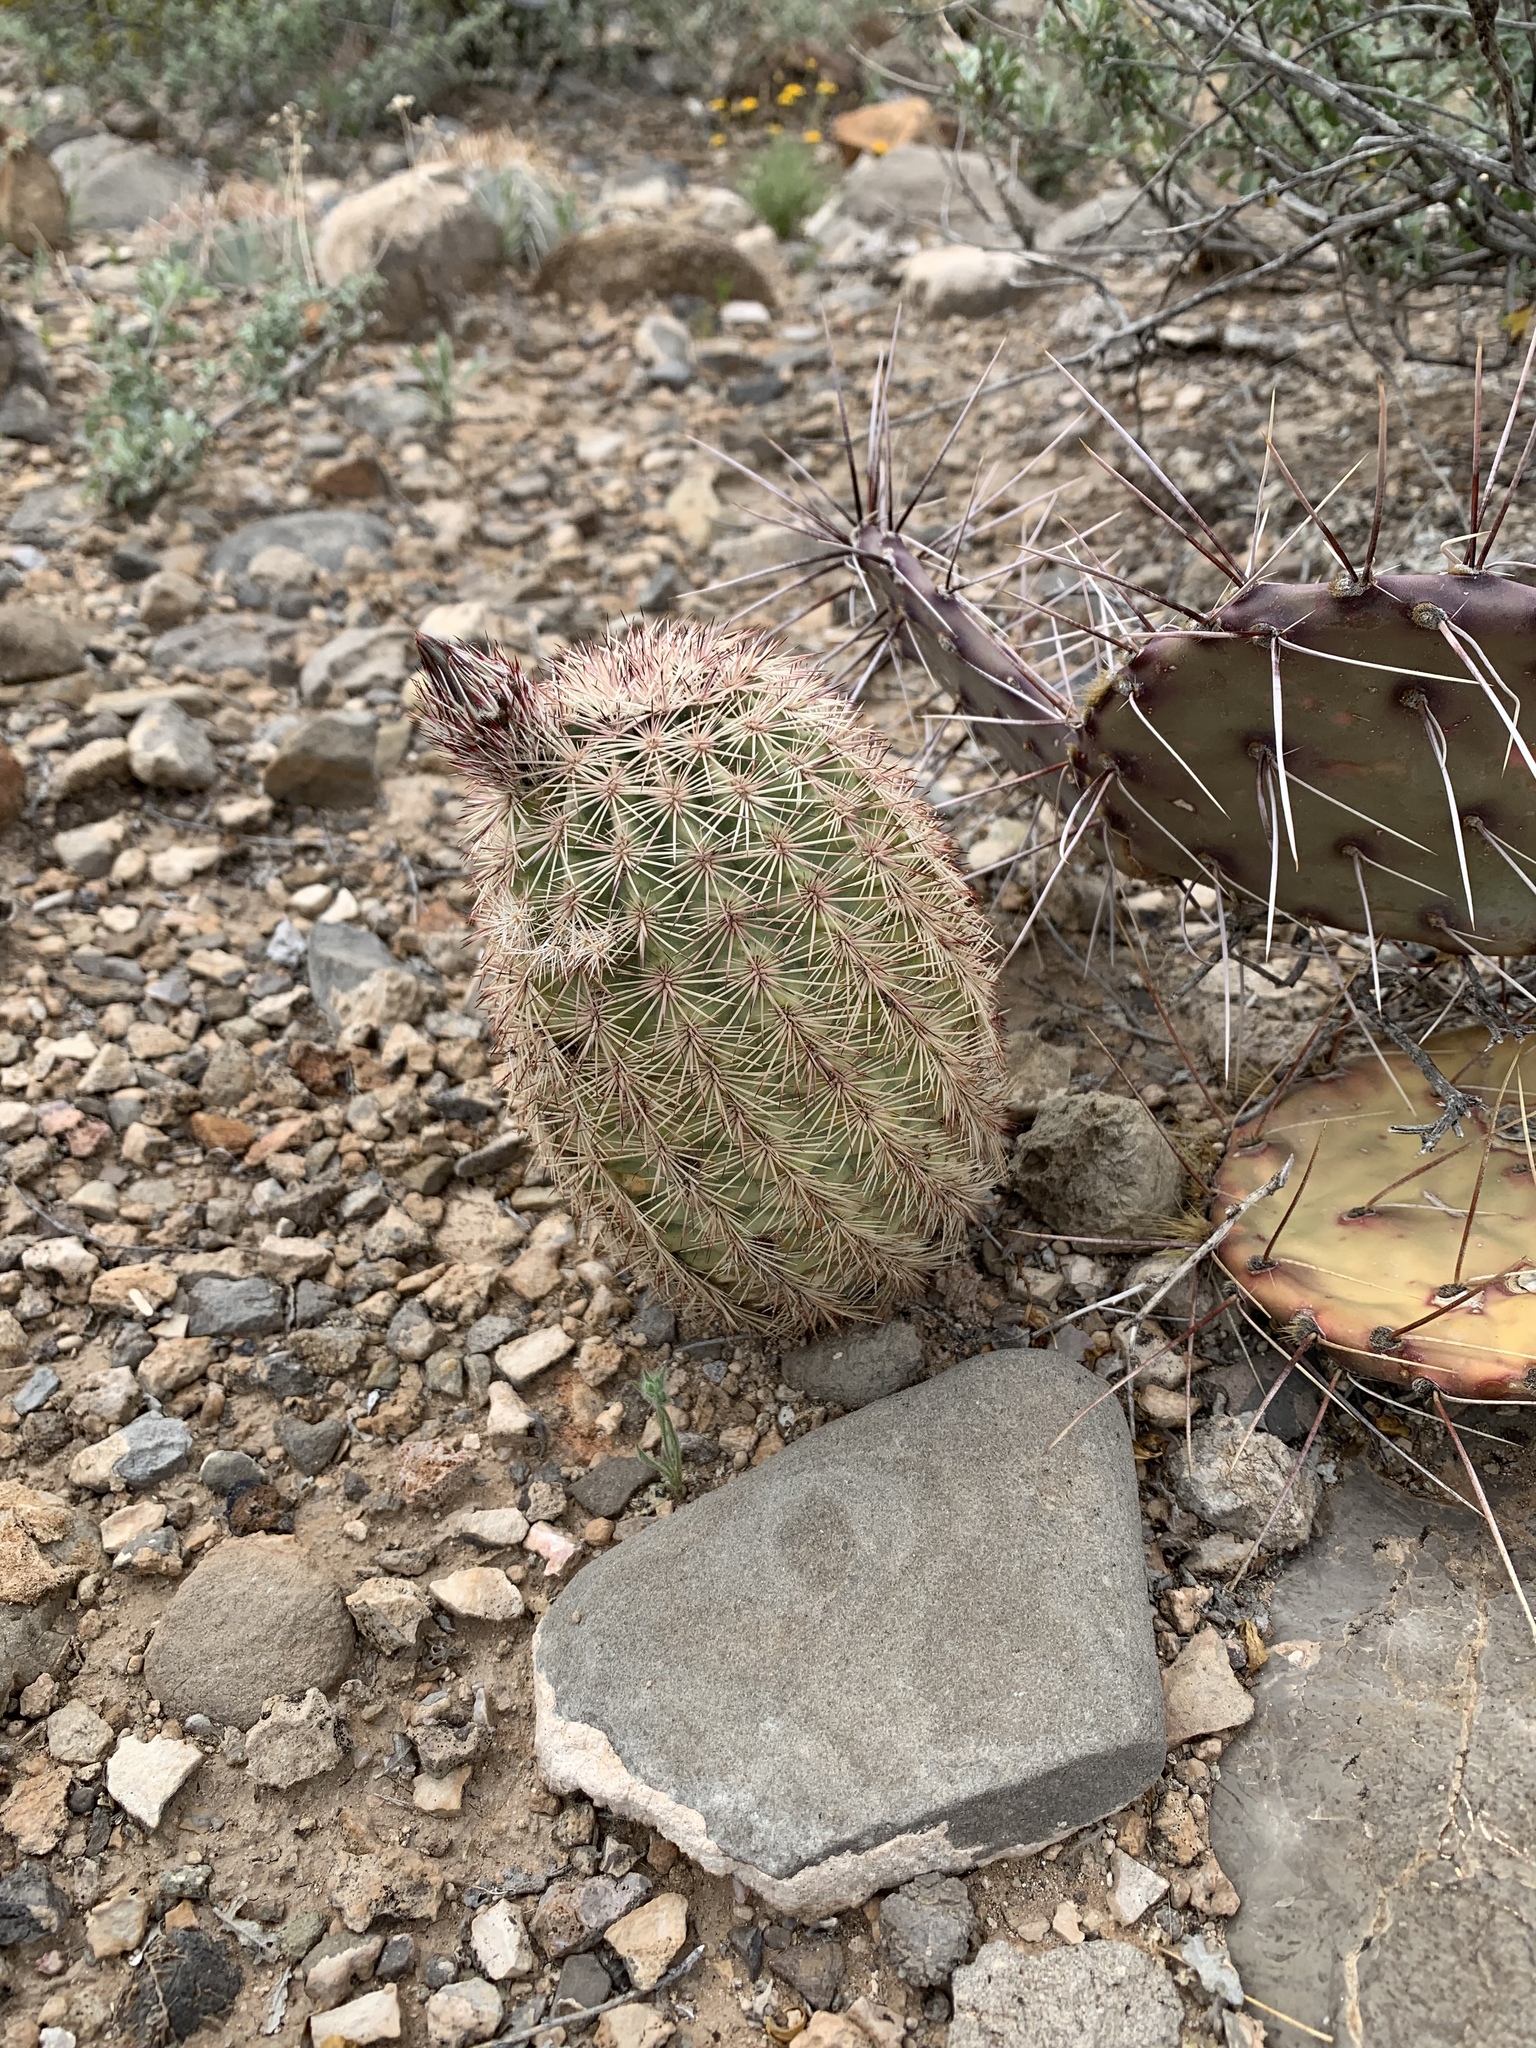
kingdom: Plantae
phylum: Tracheophyta
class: Magnoliopsida
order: Caryophyllales
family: Cactaceae
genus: Echinocereus
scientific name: Echinocereus dasyacanthus
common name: Spiny hedgehog cactus
